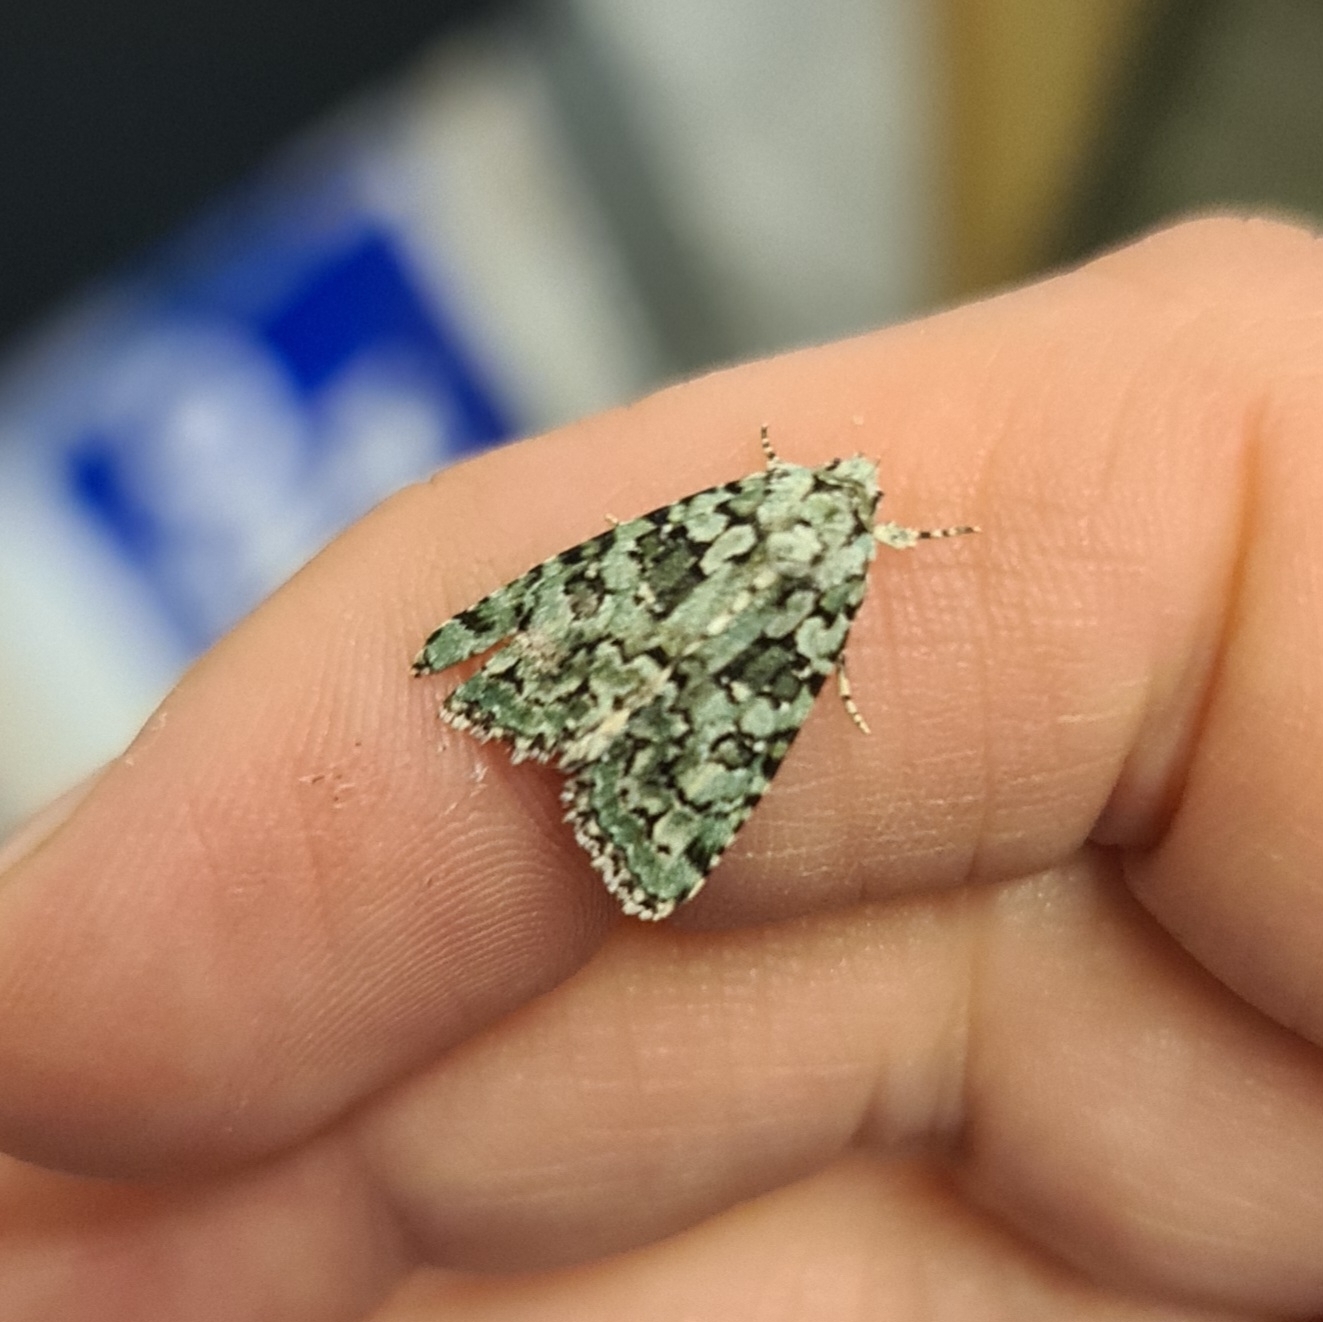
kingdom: Animalia
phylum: Arthropoda
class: Insecta
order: Lepidoptera
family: Noctuidae
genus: Nyctobrya
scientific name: Nyctobrya muralis
